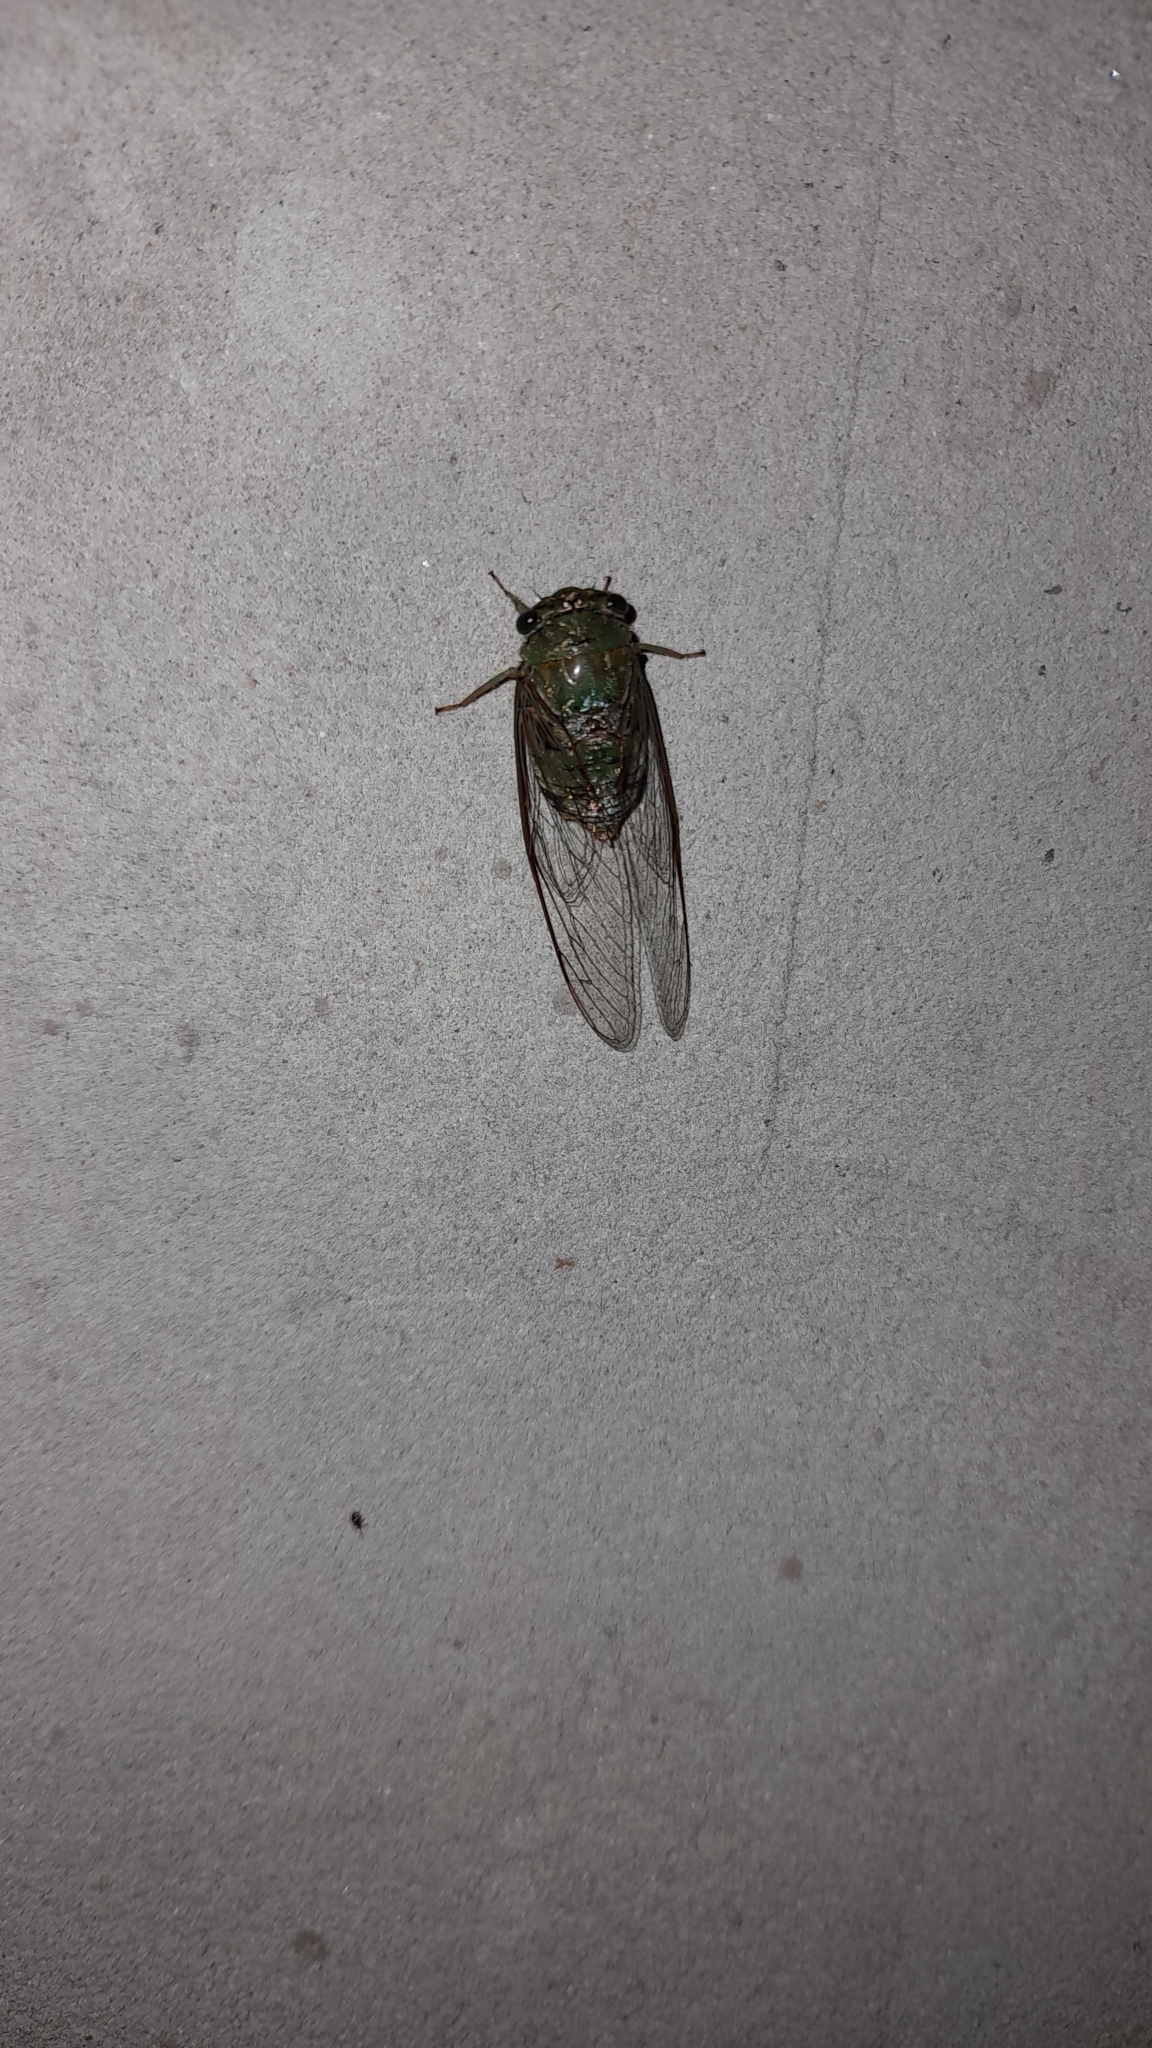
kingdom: Animalia
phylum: Arthropoda
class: Insecta
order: Hemiptera
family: Cicadidae
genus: Dorisiana
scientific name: Dorisiana metcalfi
